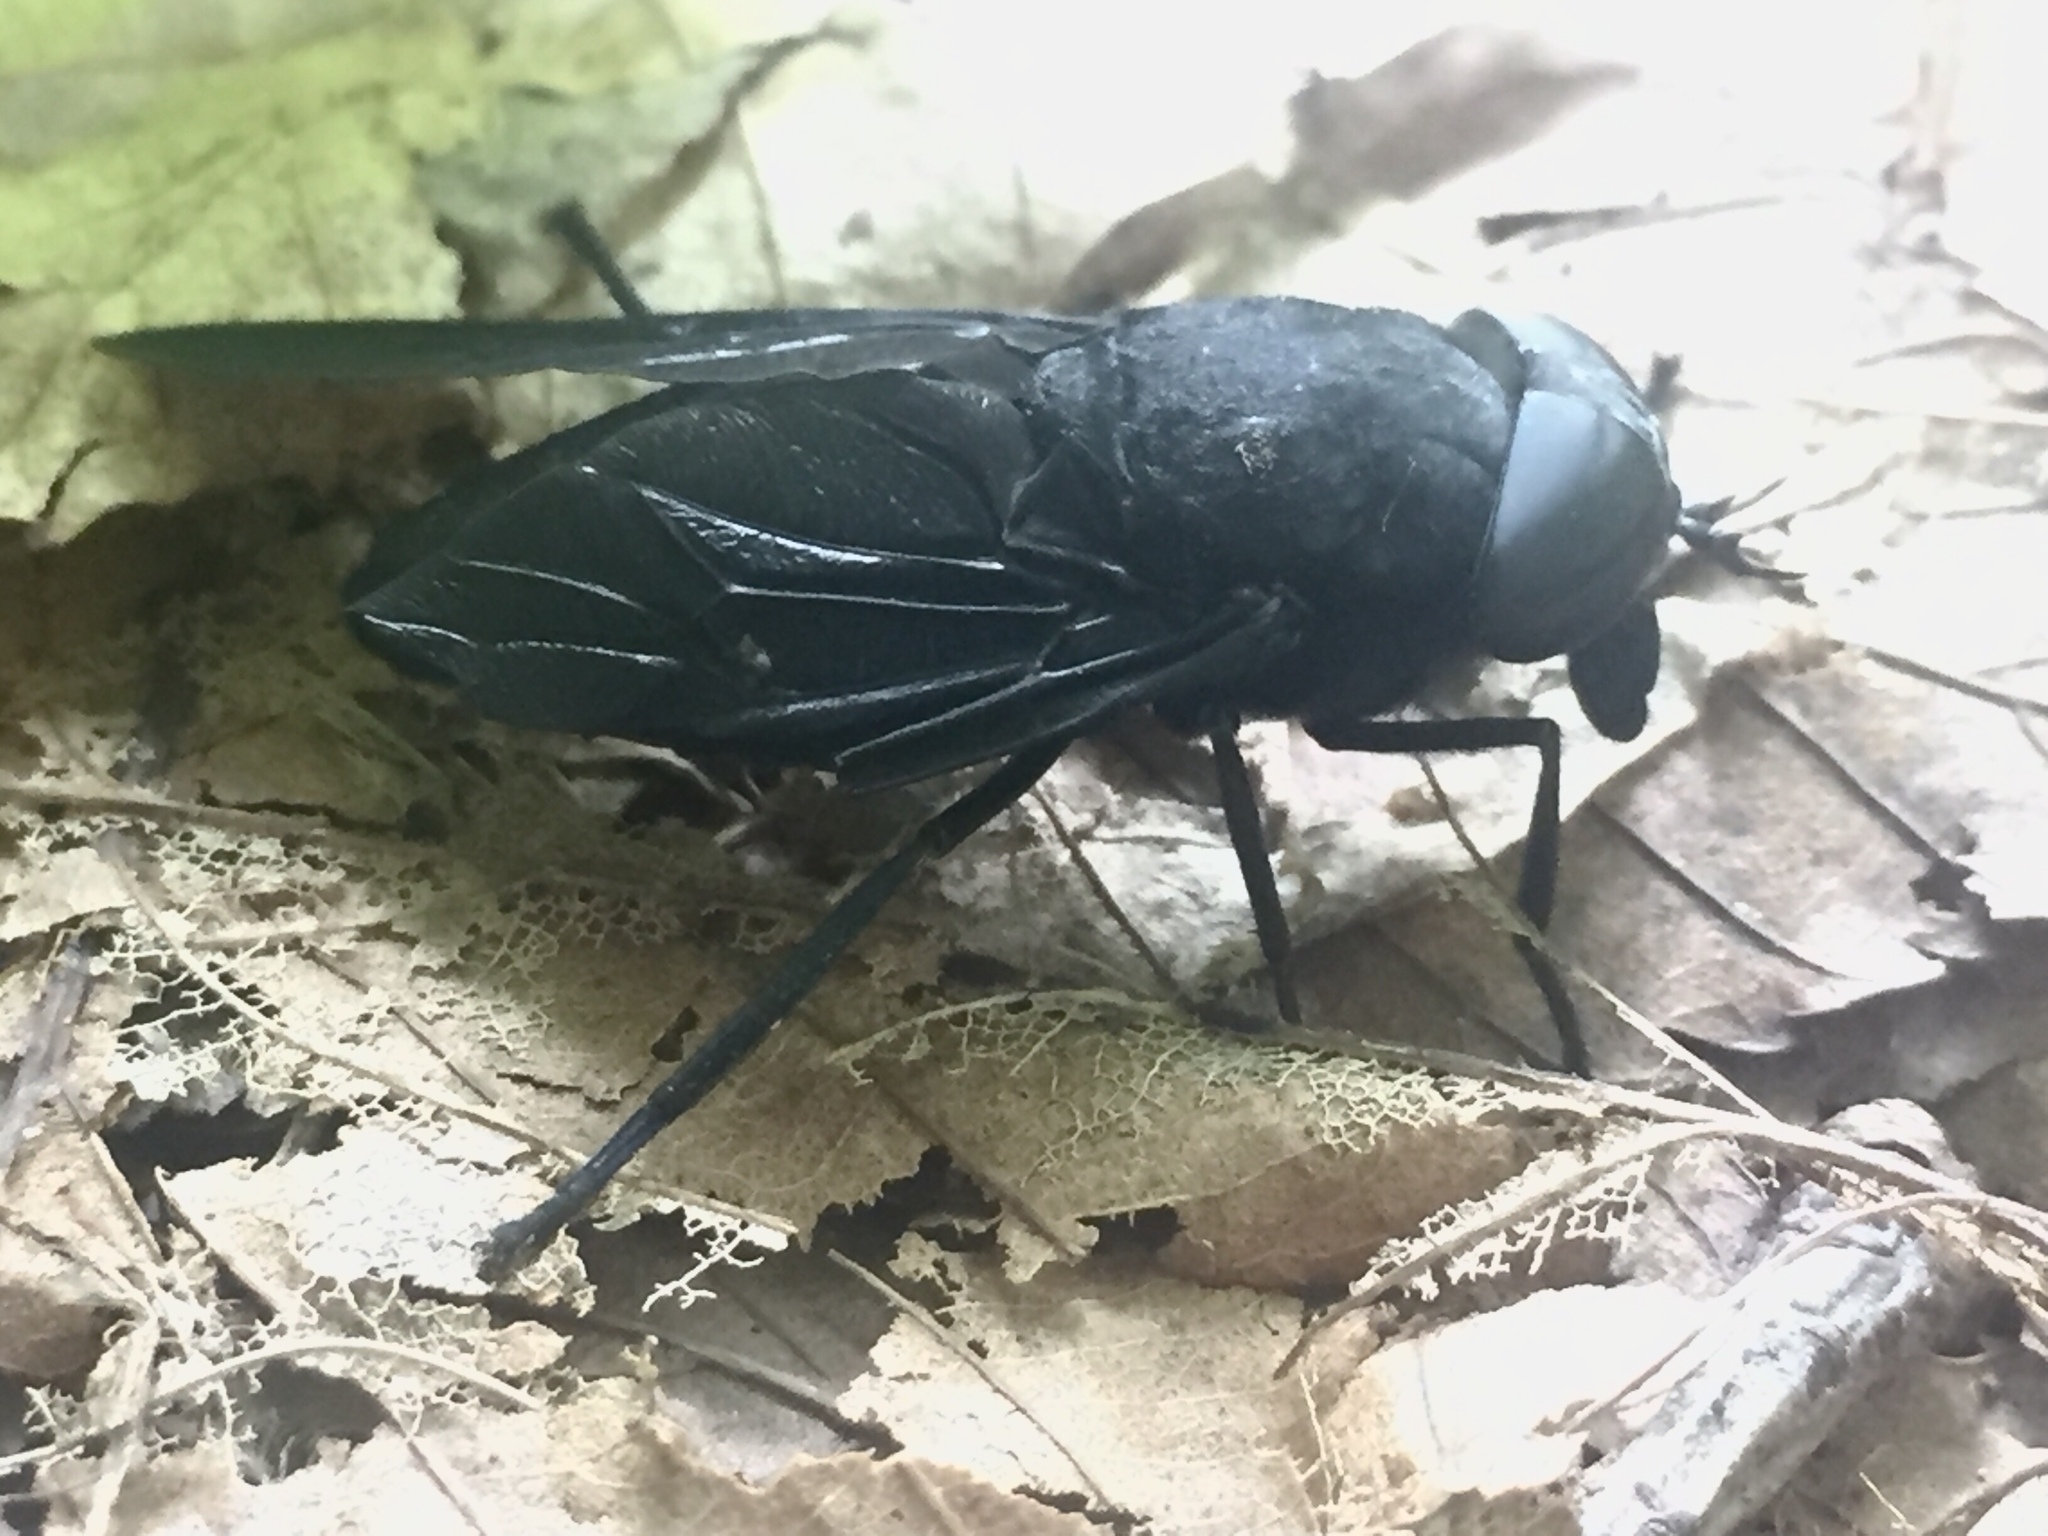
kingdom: Animalia
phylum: Arthropoda
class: Insecta
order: Diptera
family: Tabanidae
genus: Tabanus
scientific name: Tabanus atratus
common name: Black horse fly
